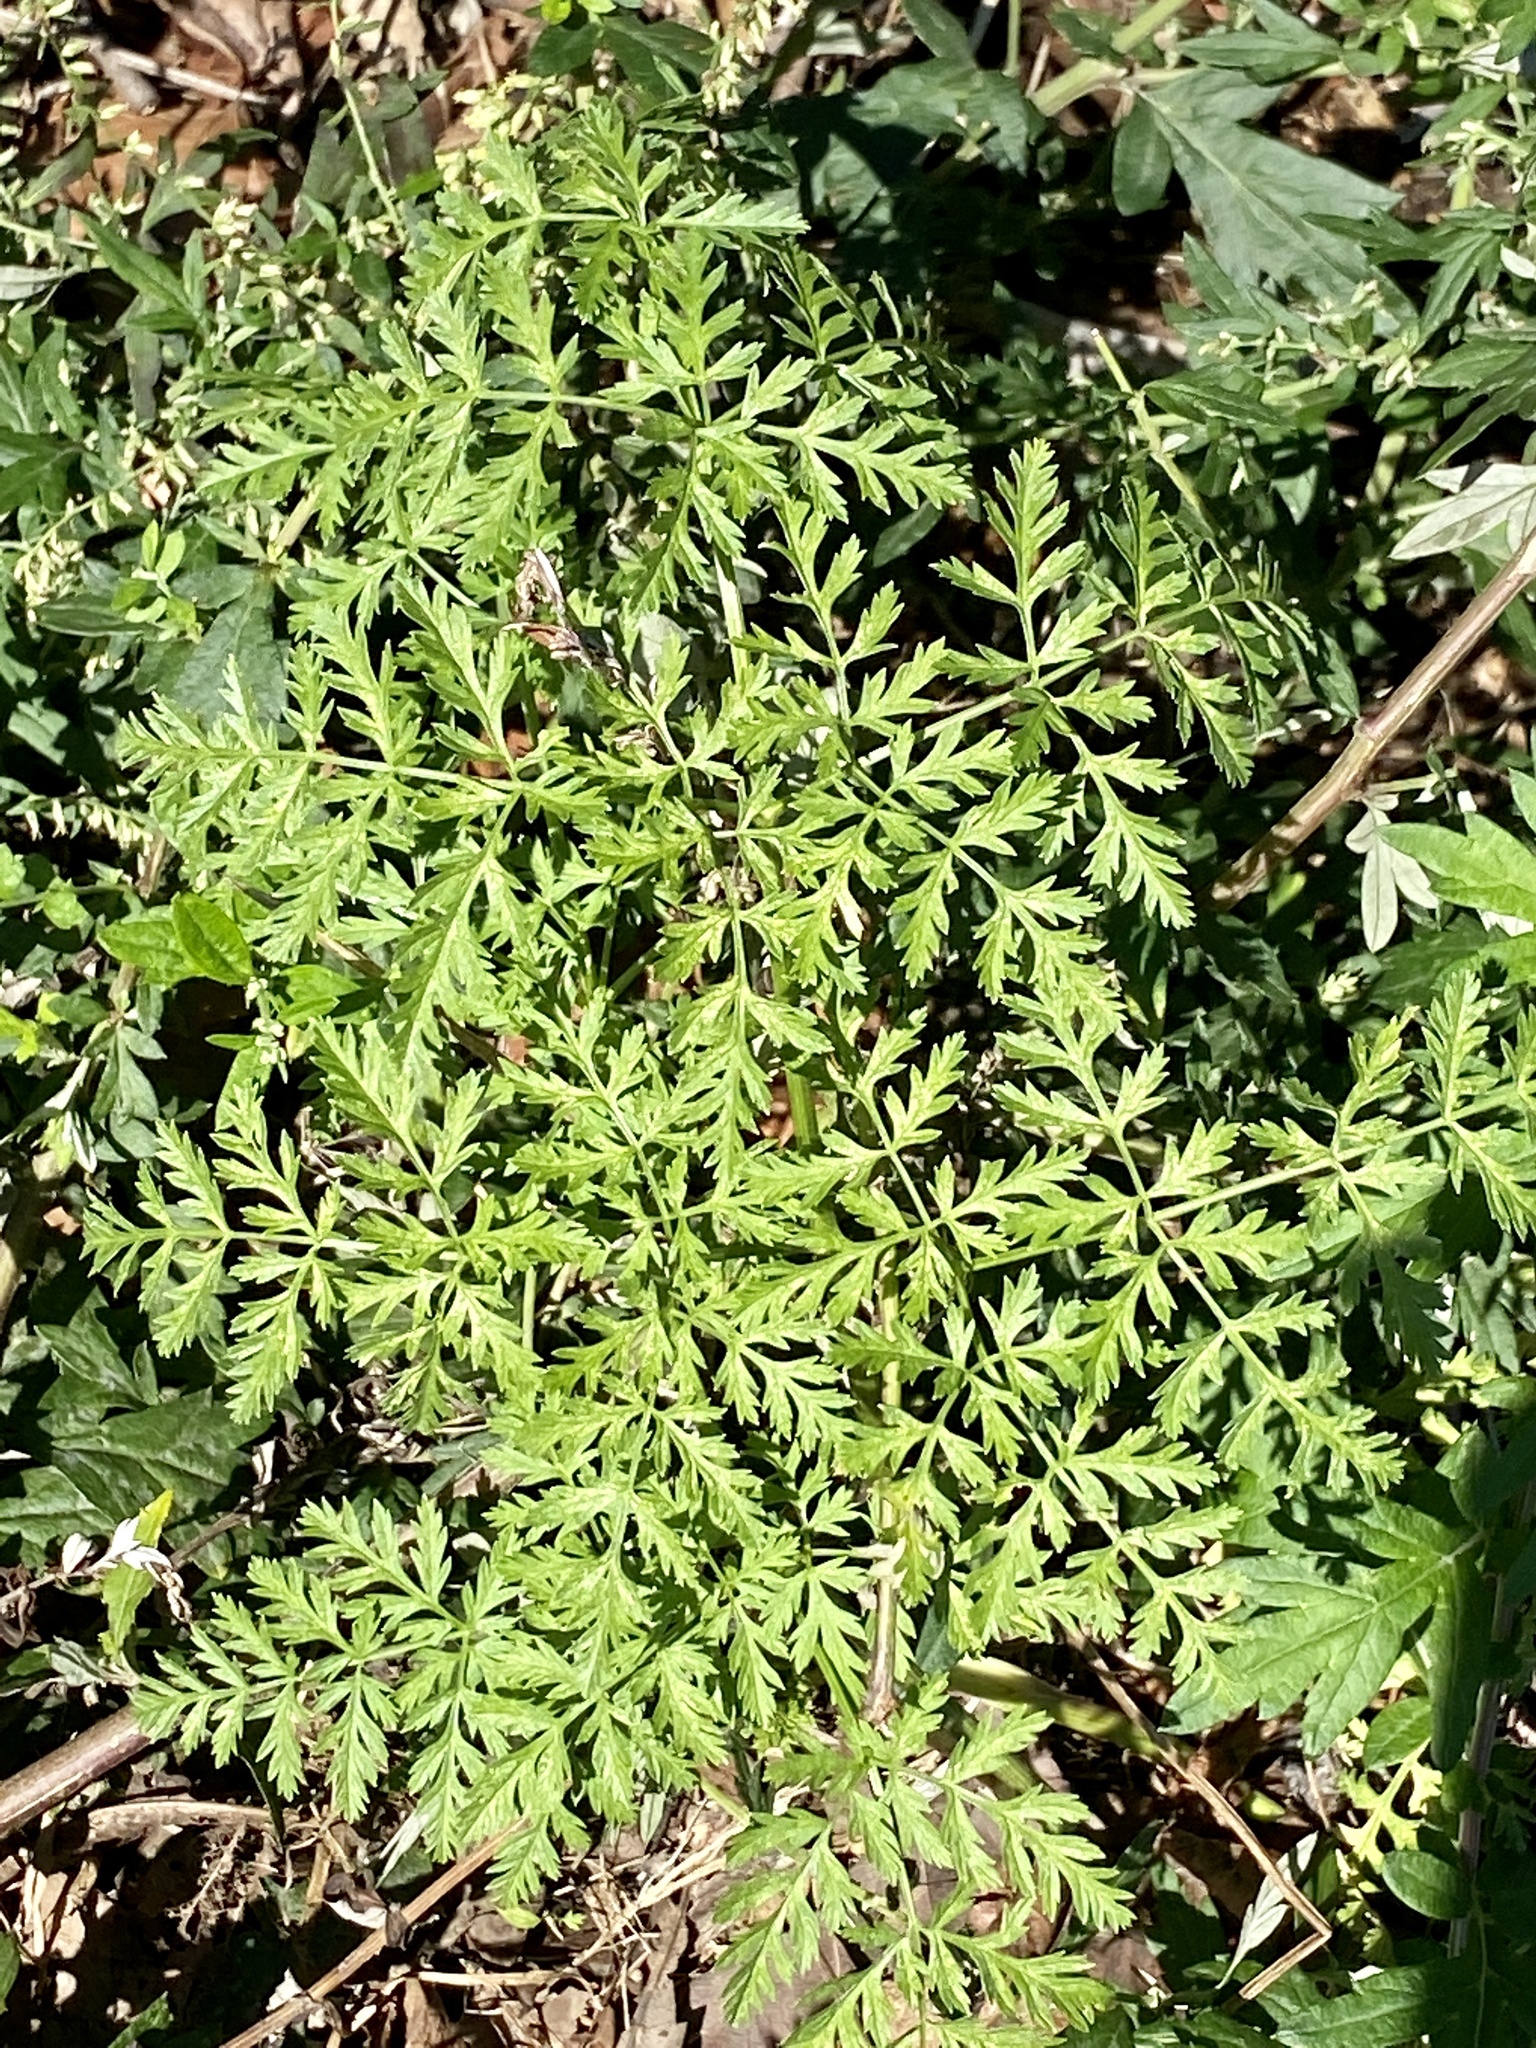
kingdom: Plantae
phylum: Tracheophyta
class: Magnoliopsida
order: Apiales
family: Apiaceae
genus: Conium
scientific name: Conium maculatum
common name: Hemlock
